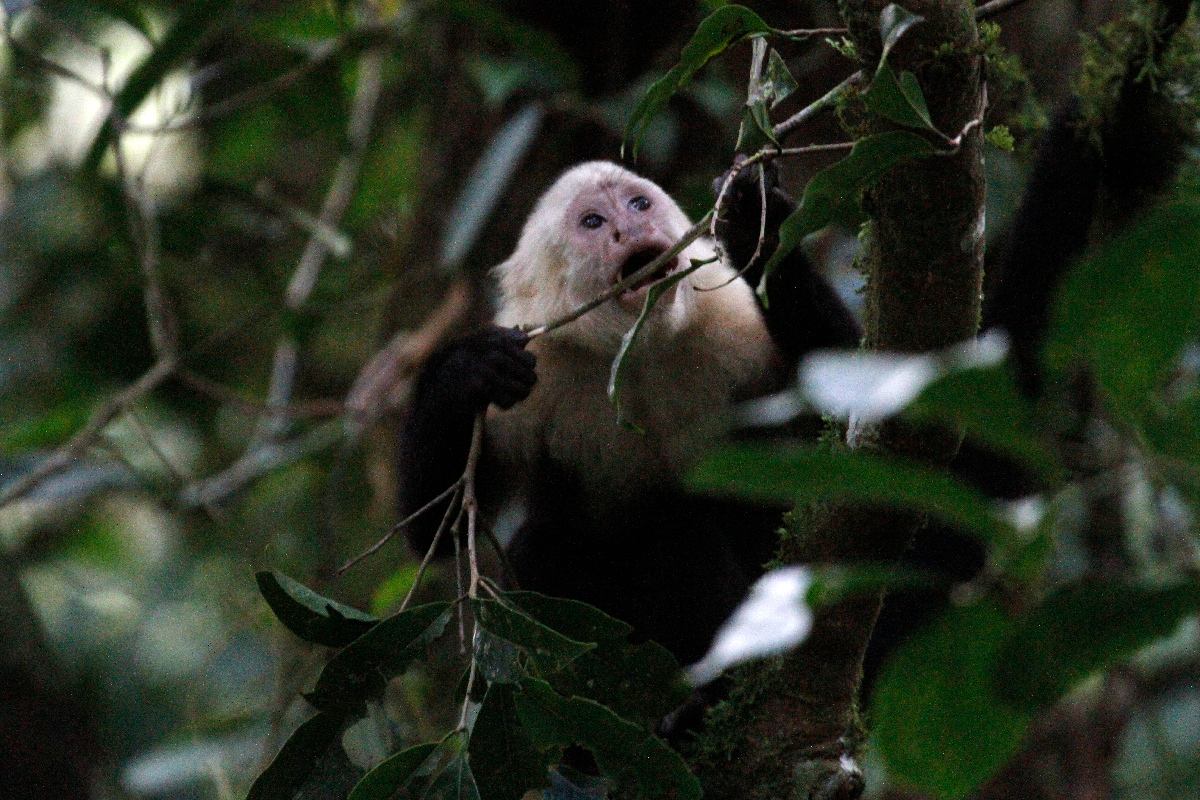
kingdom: Animalia
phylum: Chordata
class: Mammalia
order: Primates
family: Cebidae
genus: Cebus
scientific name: Cebus imitator
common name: Panamanian white-faced capuchin
